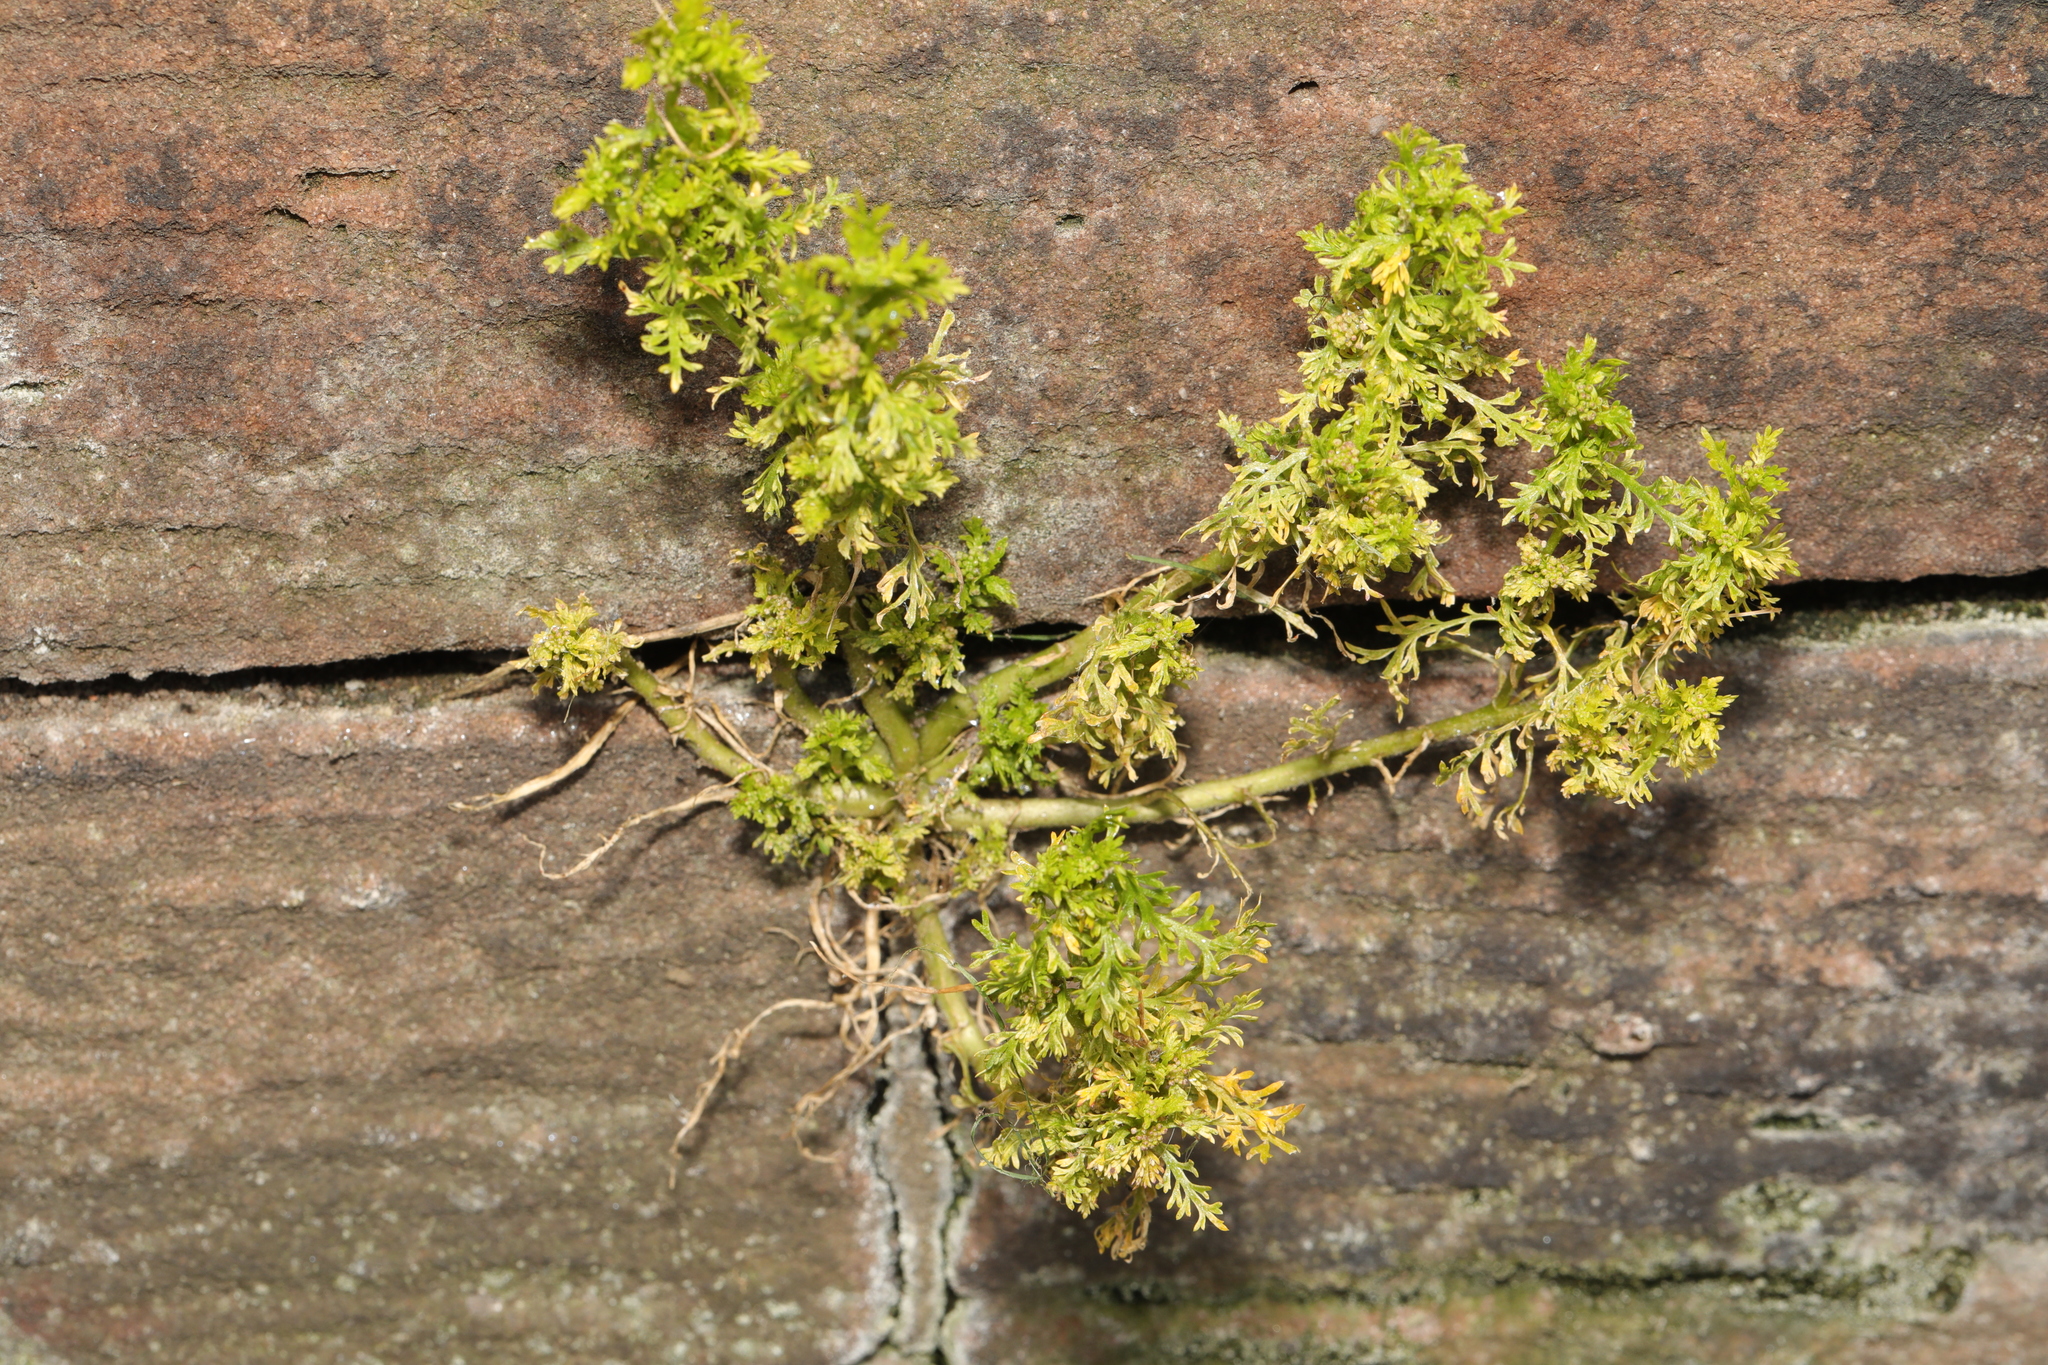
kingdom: Plantae
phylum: Tracheophyta
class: Magnoliopsida
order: Brassicales
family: Brassicaceae
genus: Lepidium
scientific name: Lepidium didymum
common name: Lesser swinecress
